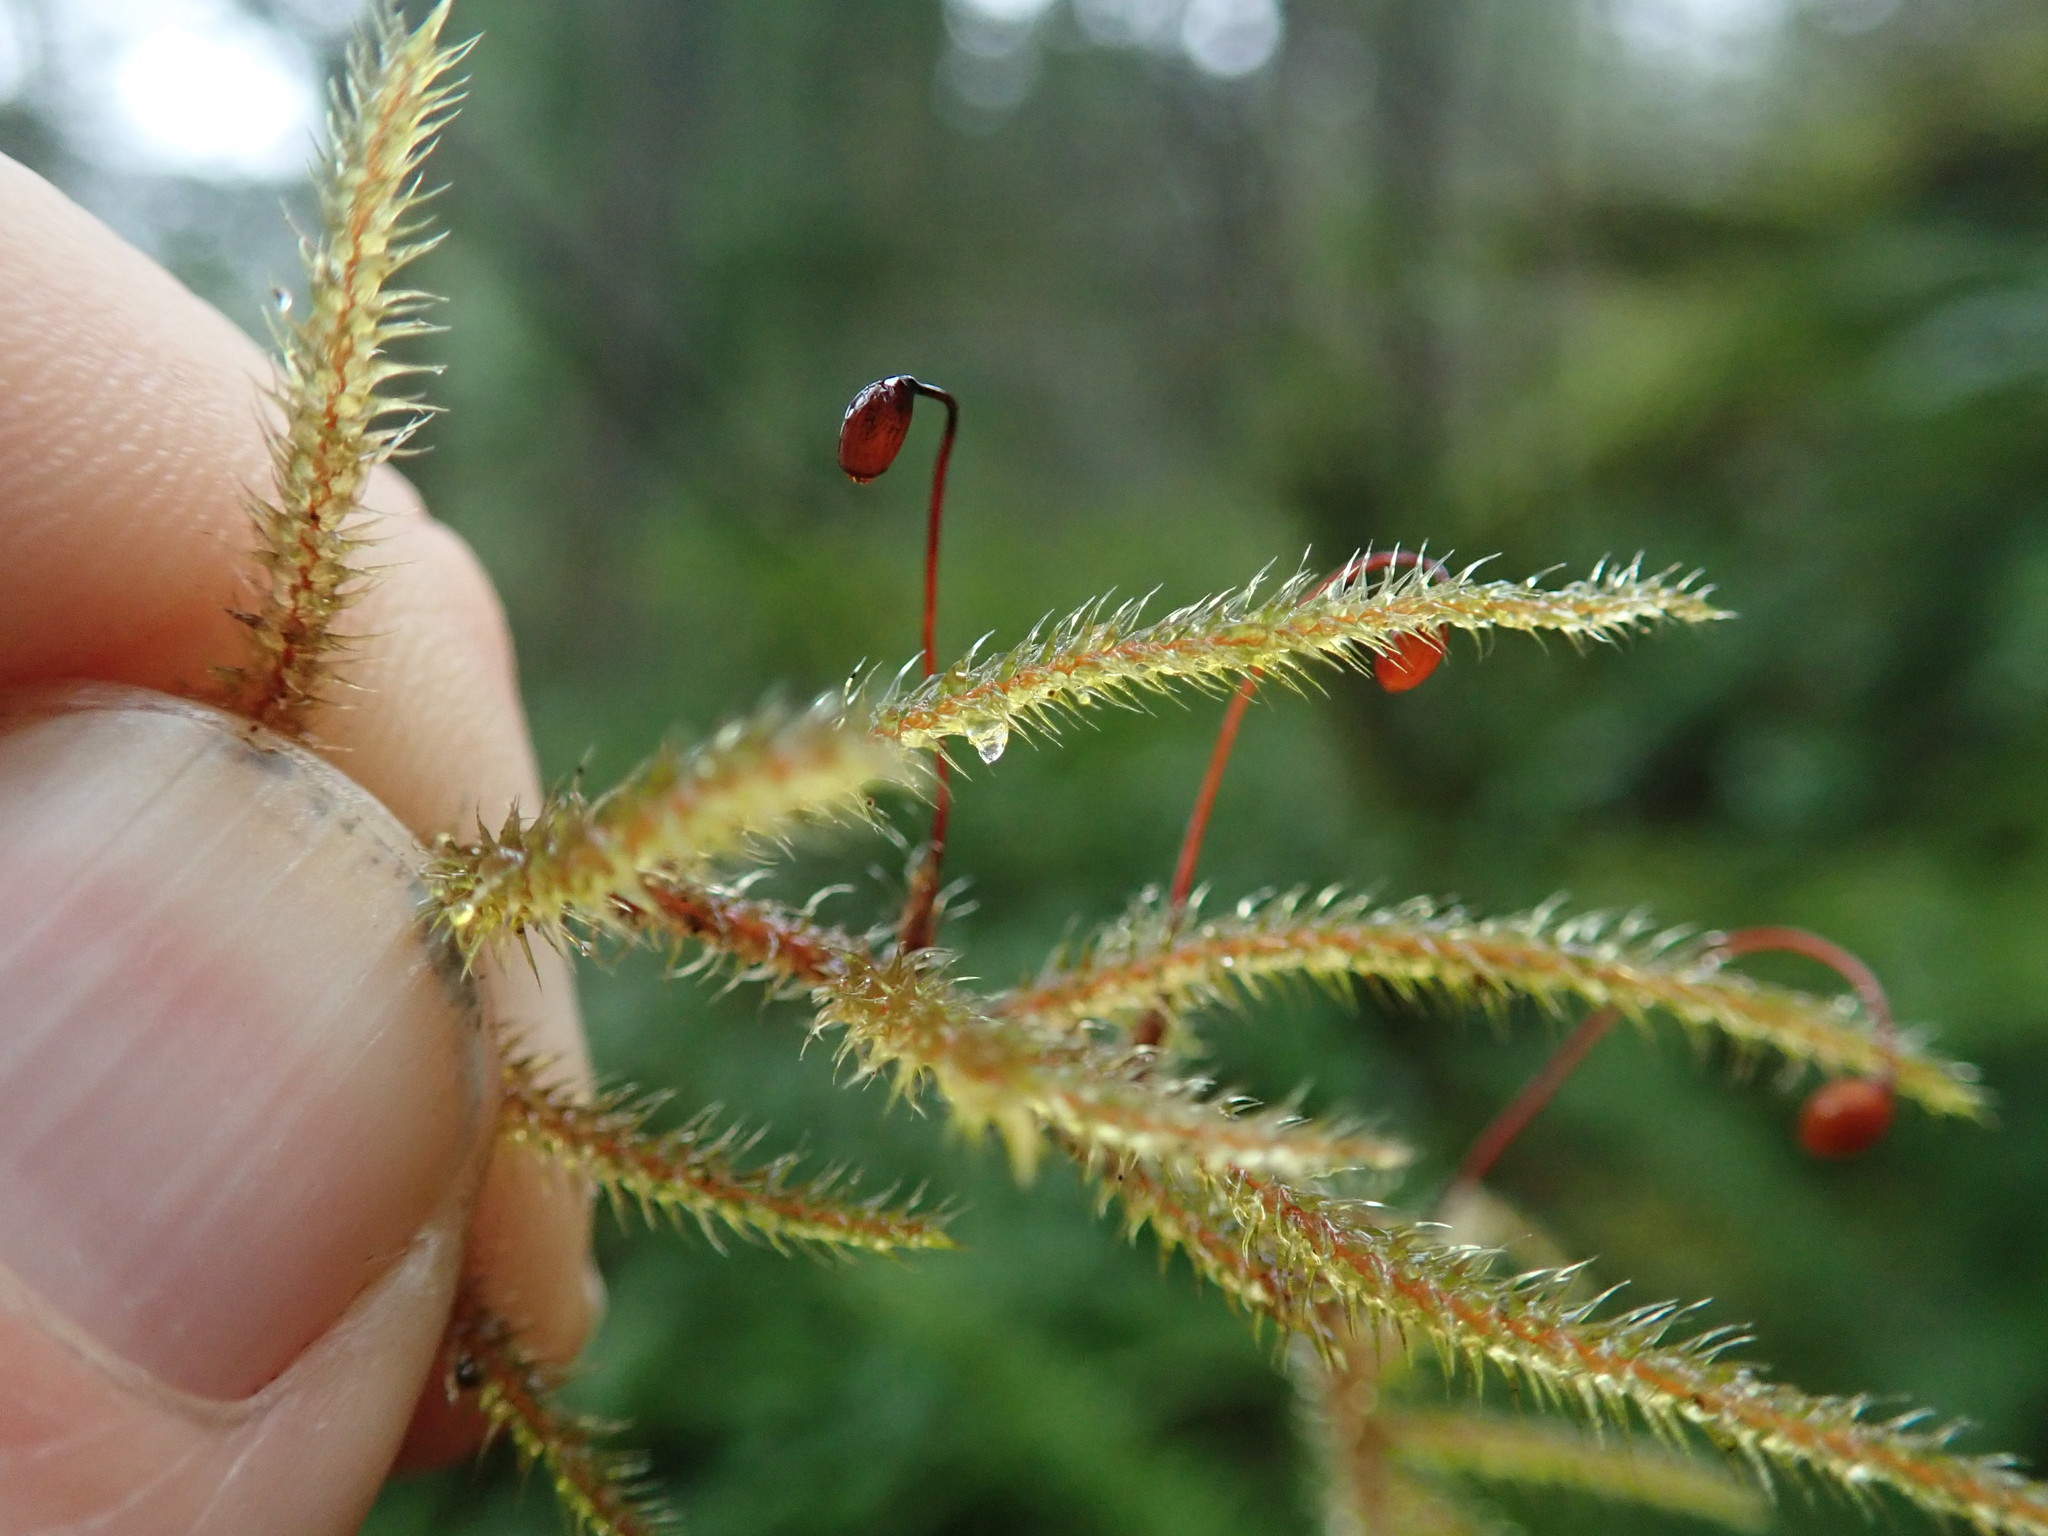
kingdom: Plantae
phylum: Bryophyta
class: Bryopsida
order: Hypnales
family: Hylocomiaceae
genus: Rhytidiadelphus
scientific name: Rhytidiadelphus loreus
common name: Lanky moss
